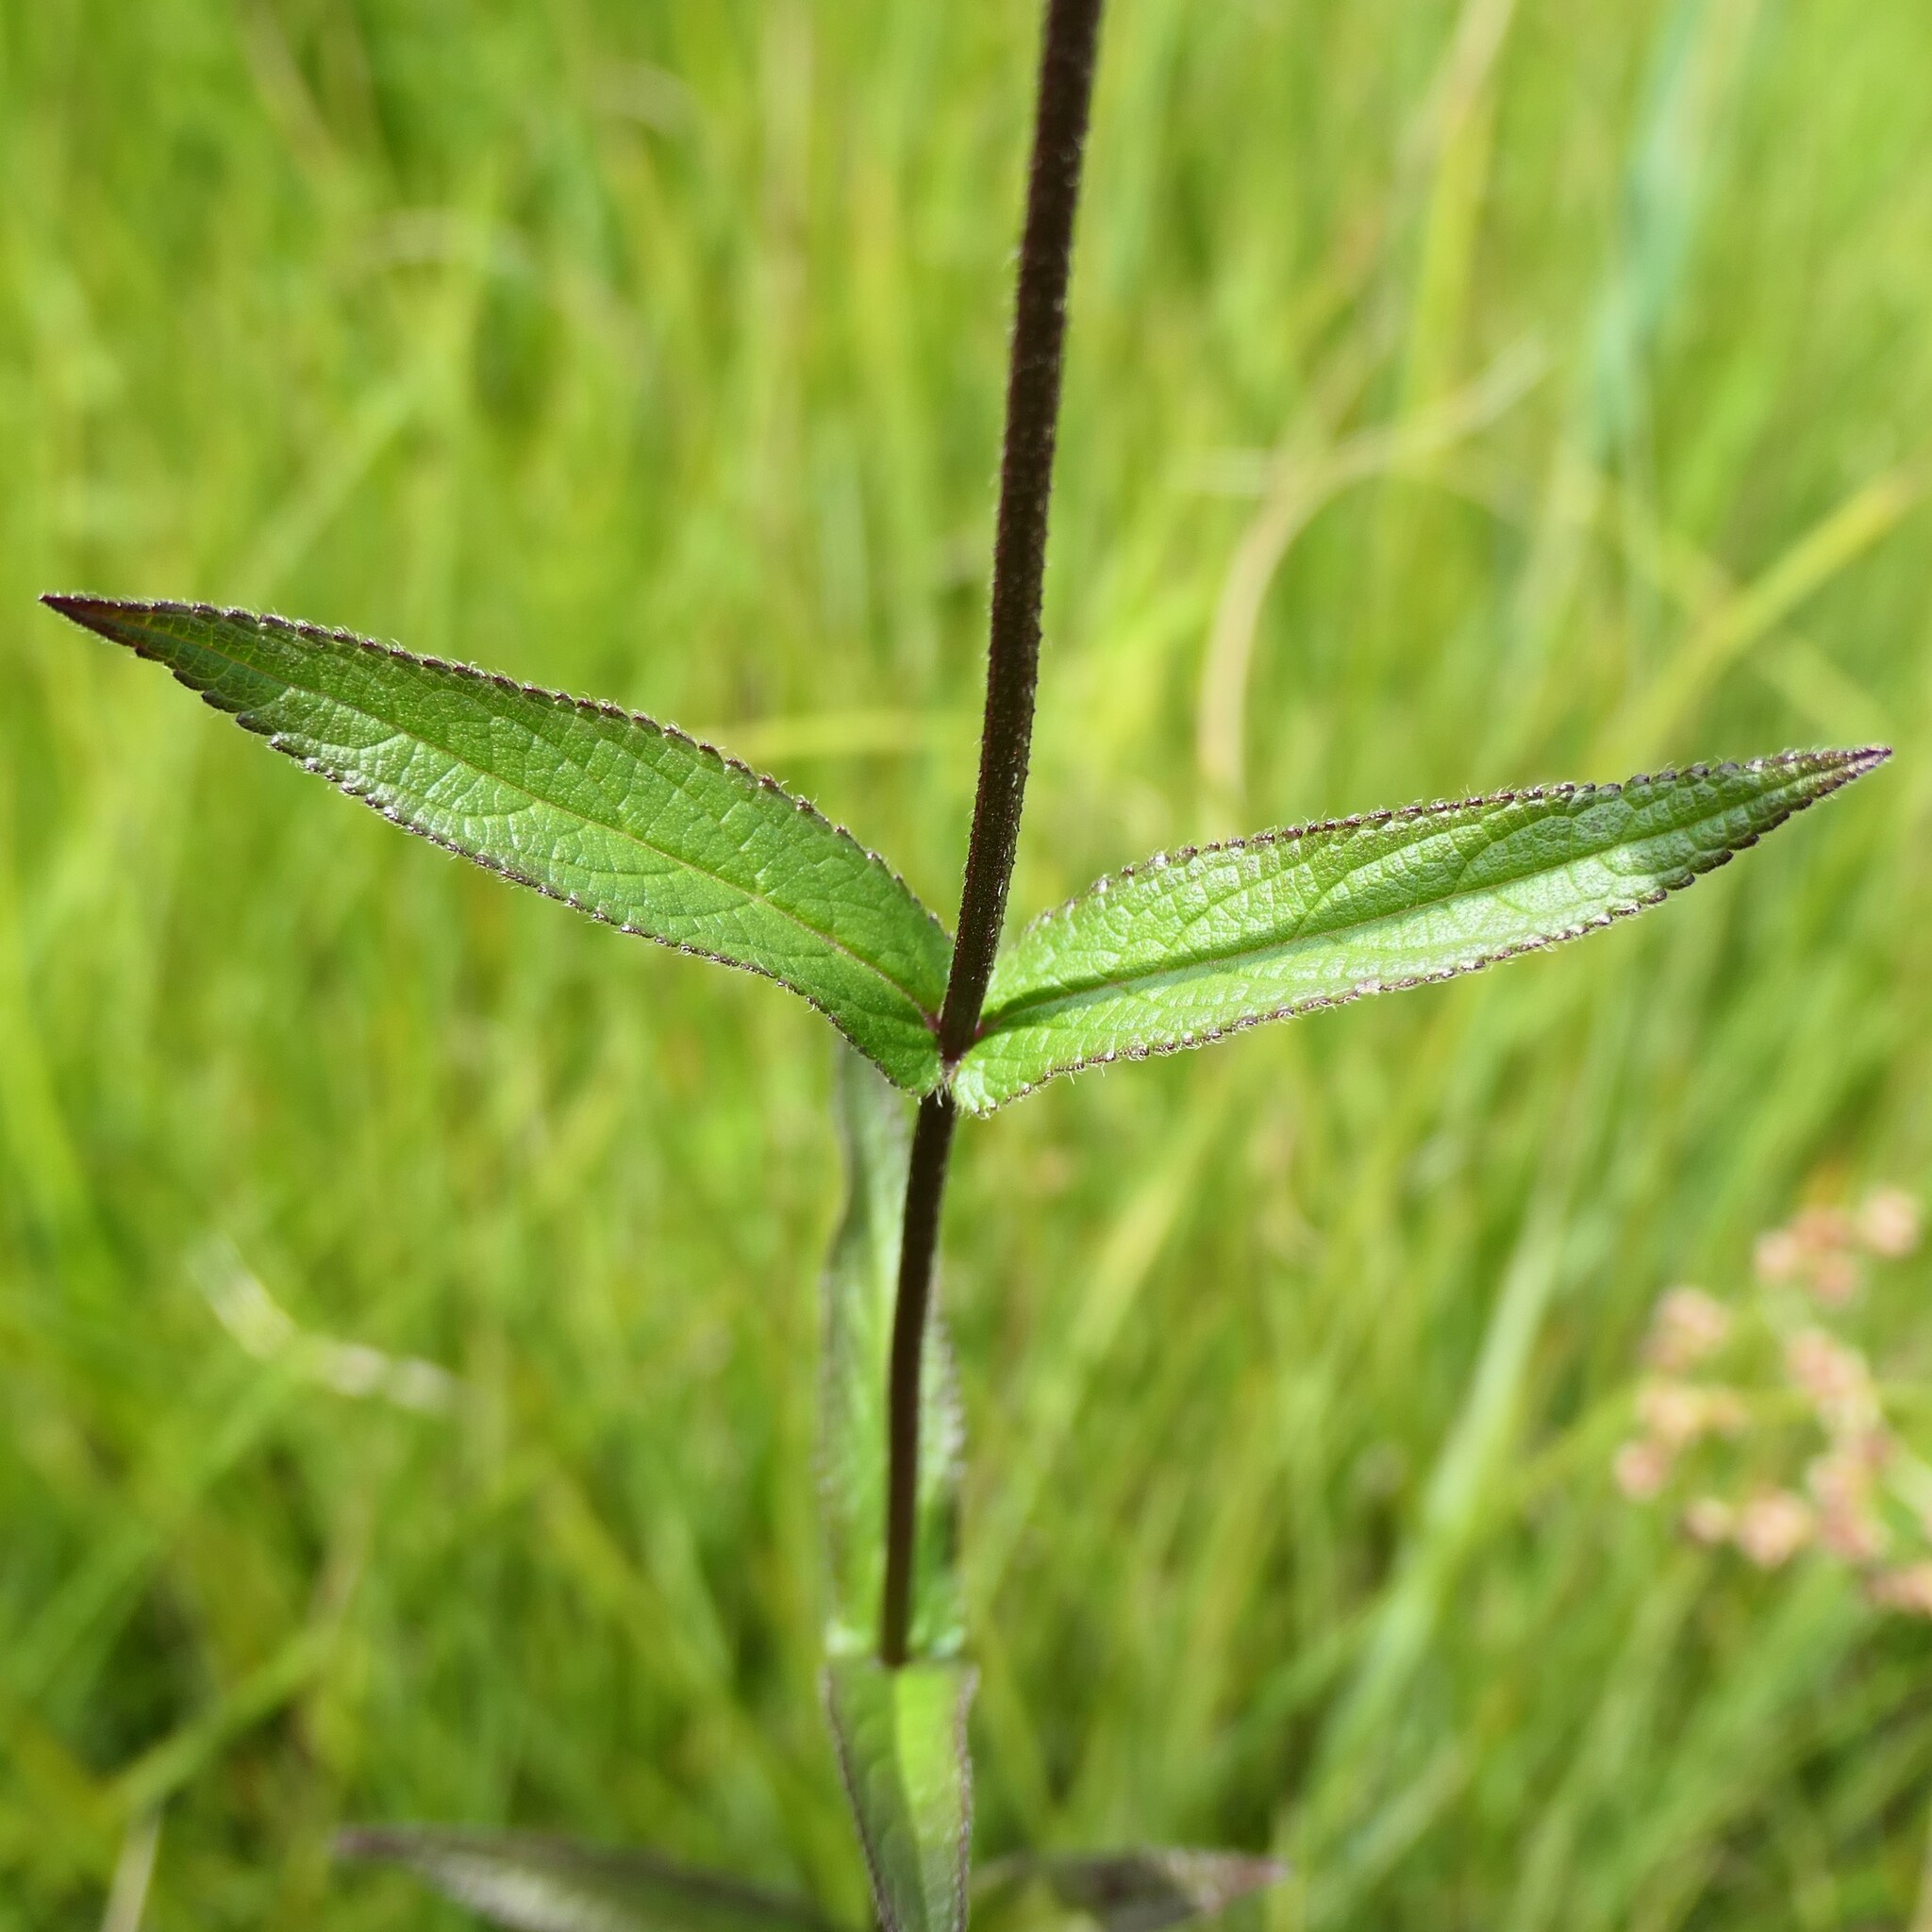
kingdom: Plantae
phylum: Tracheophyta
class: Magnoliopsida
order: Lamiales
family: Lamiaceae
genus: Stachys
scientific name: Stachys palustris
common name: Marsh woundwort
